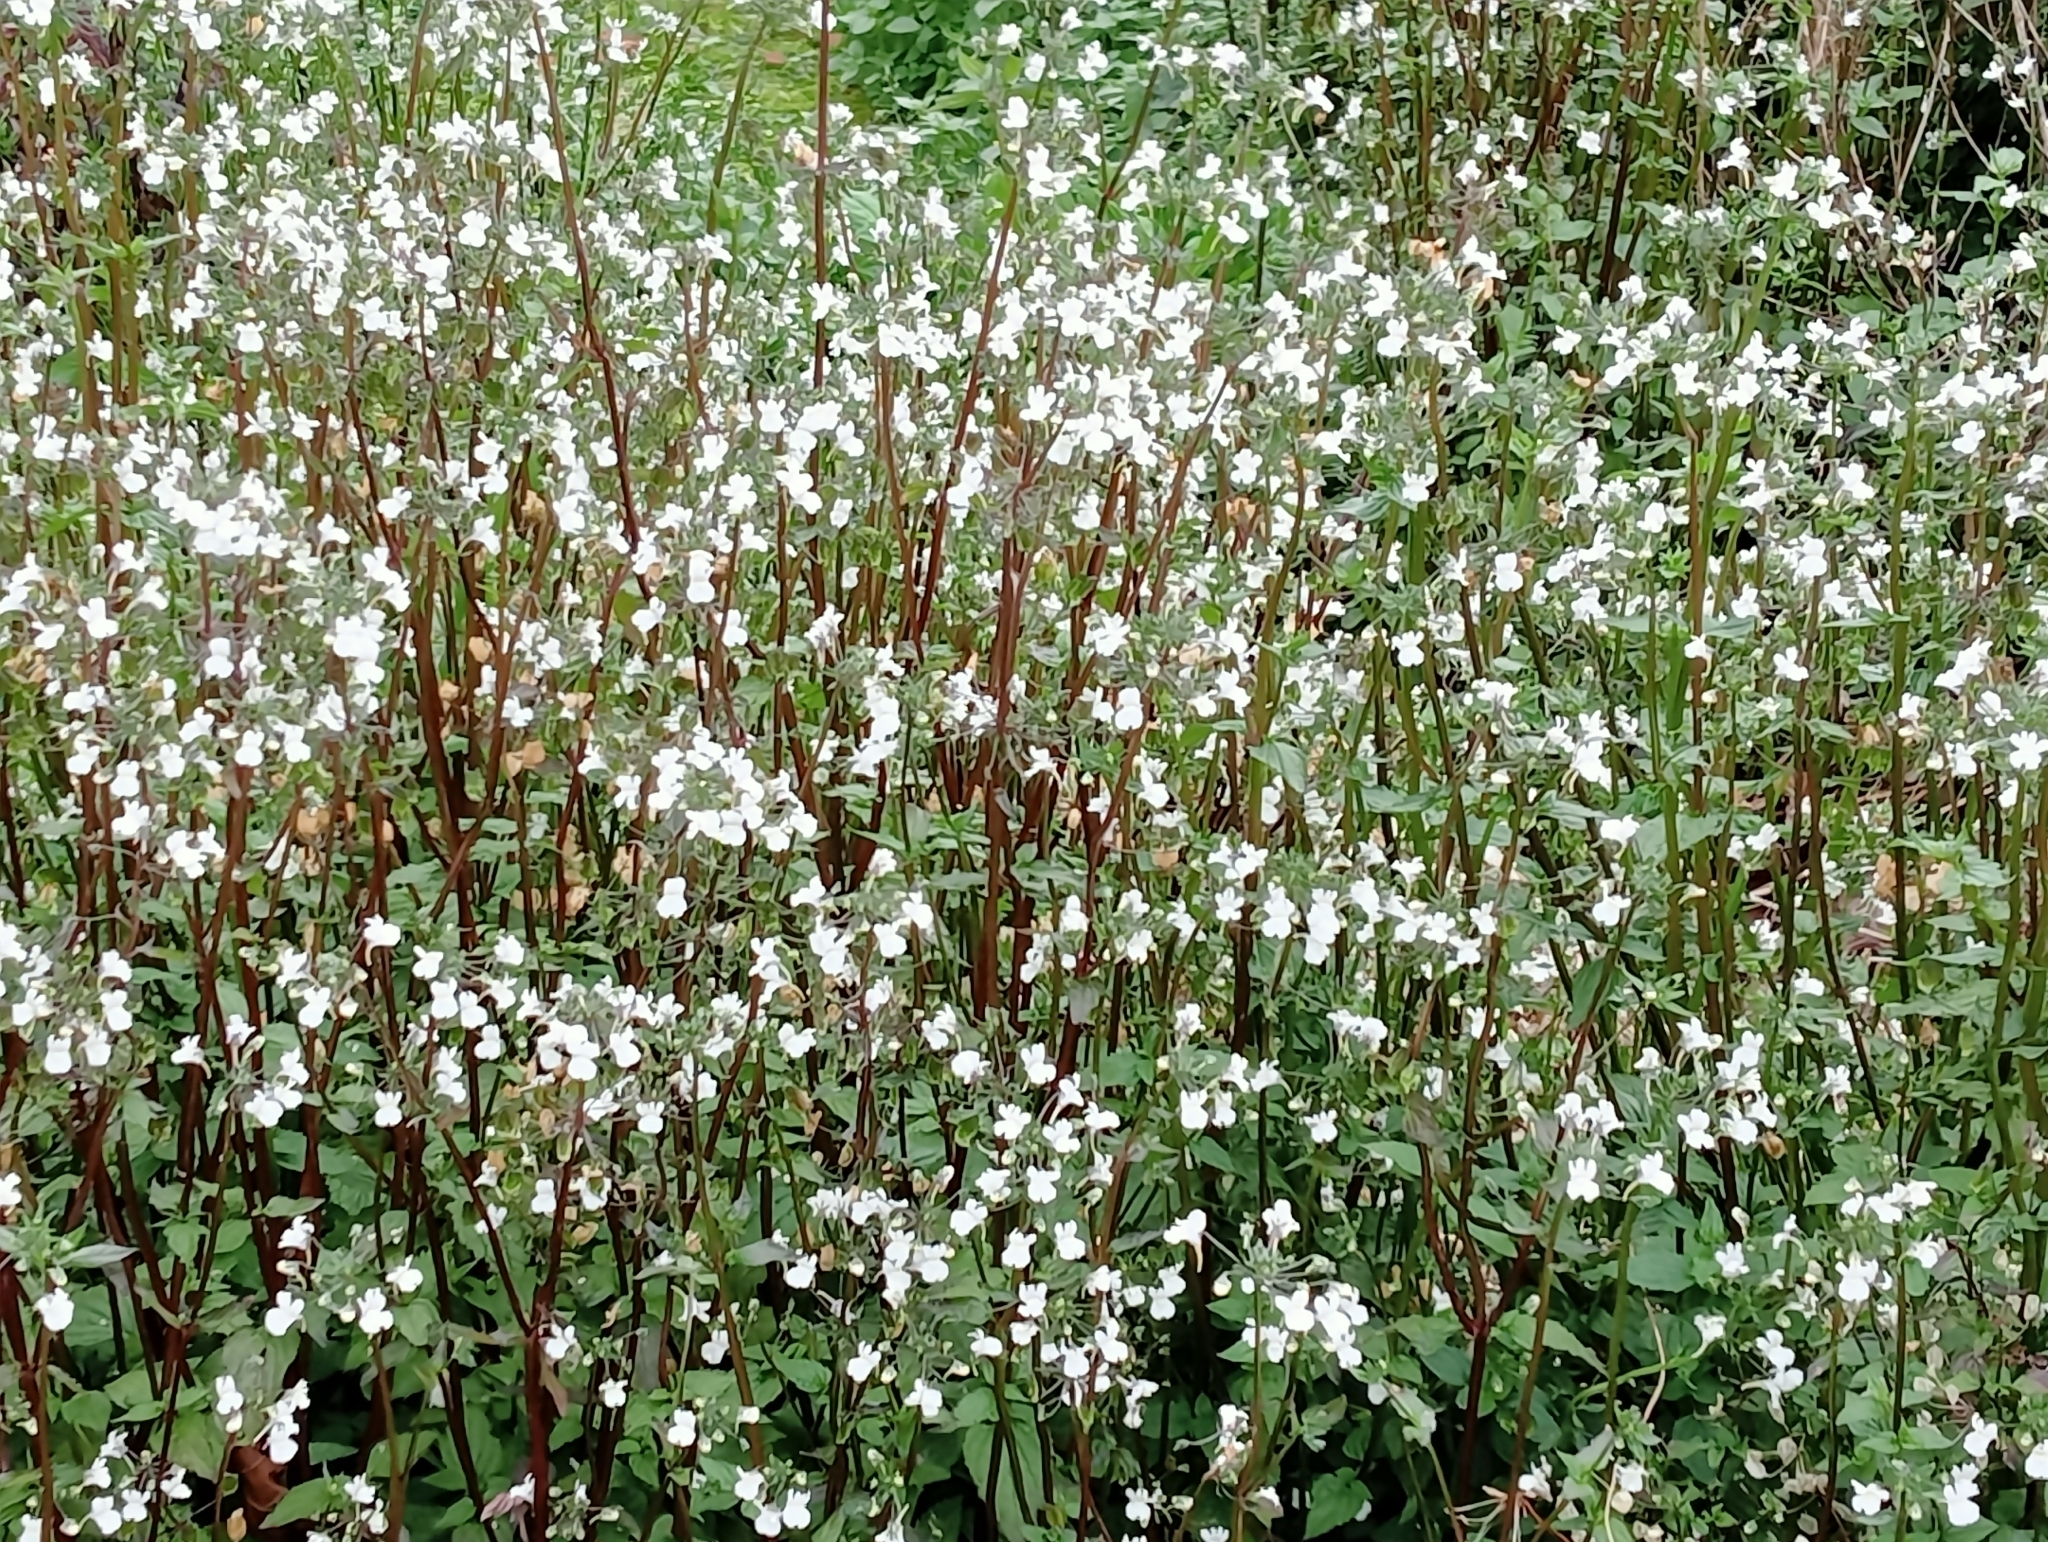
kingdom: Plantae
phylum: Tracheophyta
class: Magnoliopsida
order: Lamiales
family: Scrophulariaceae
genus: Nemesia
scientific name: Nemesia floribunda
